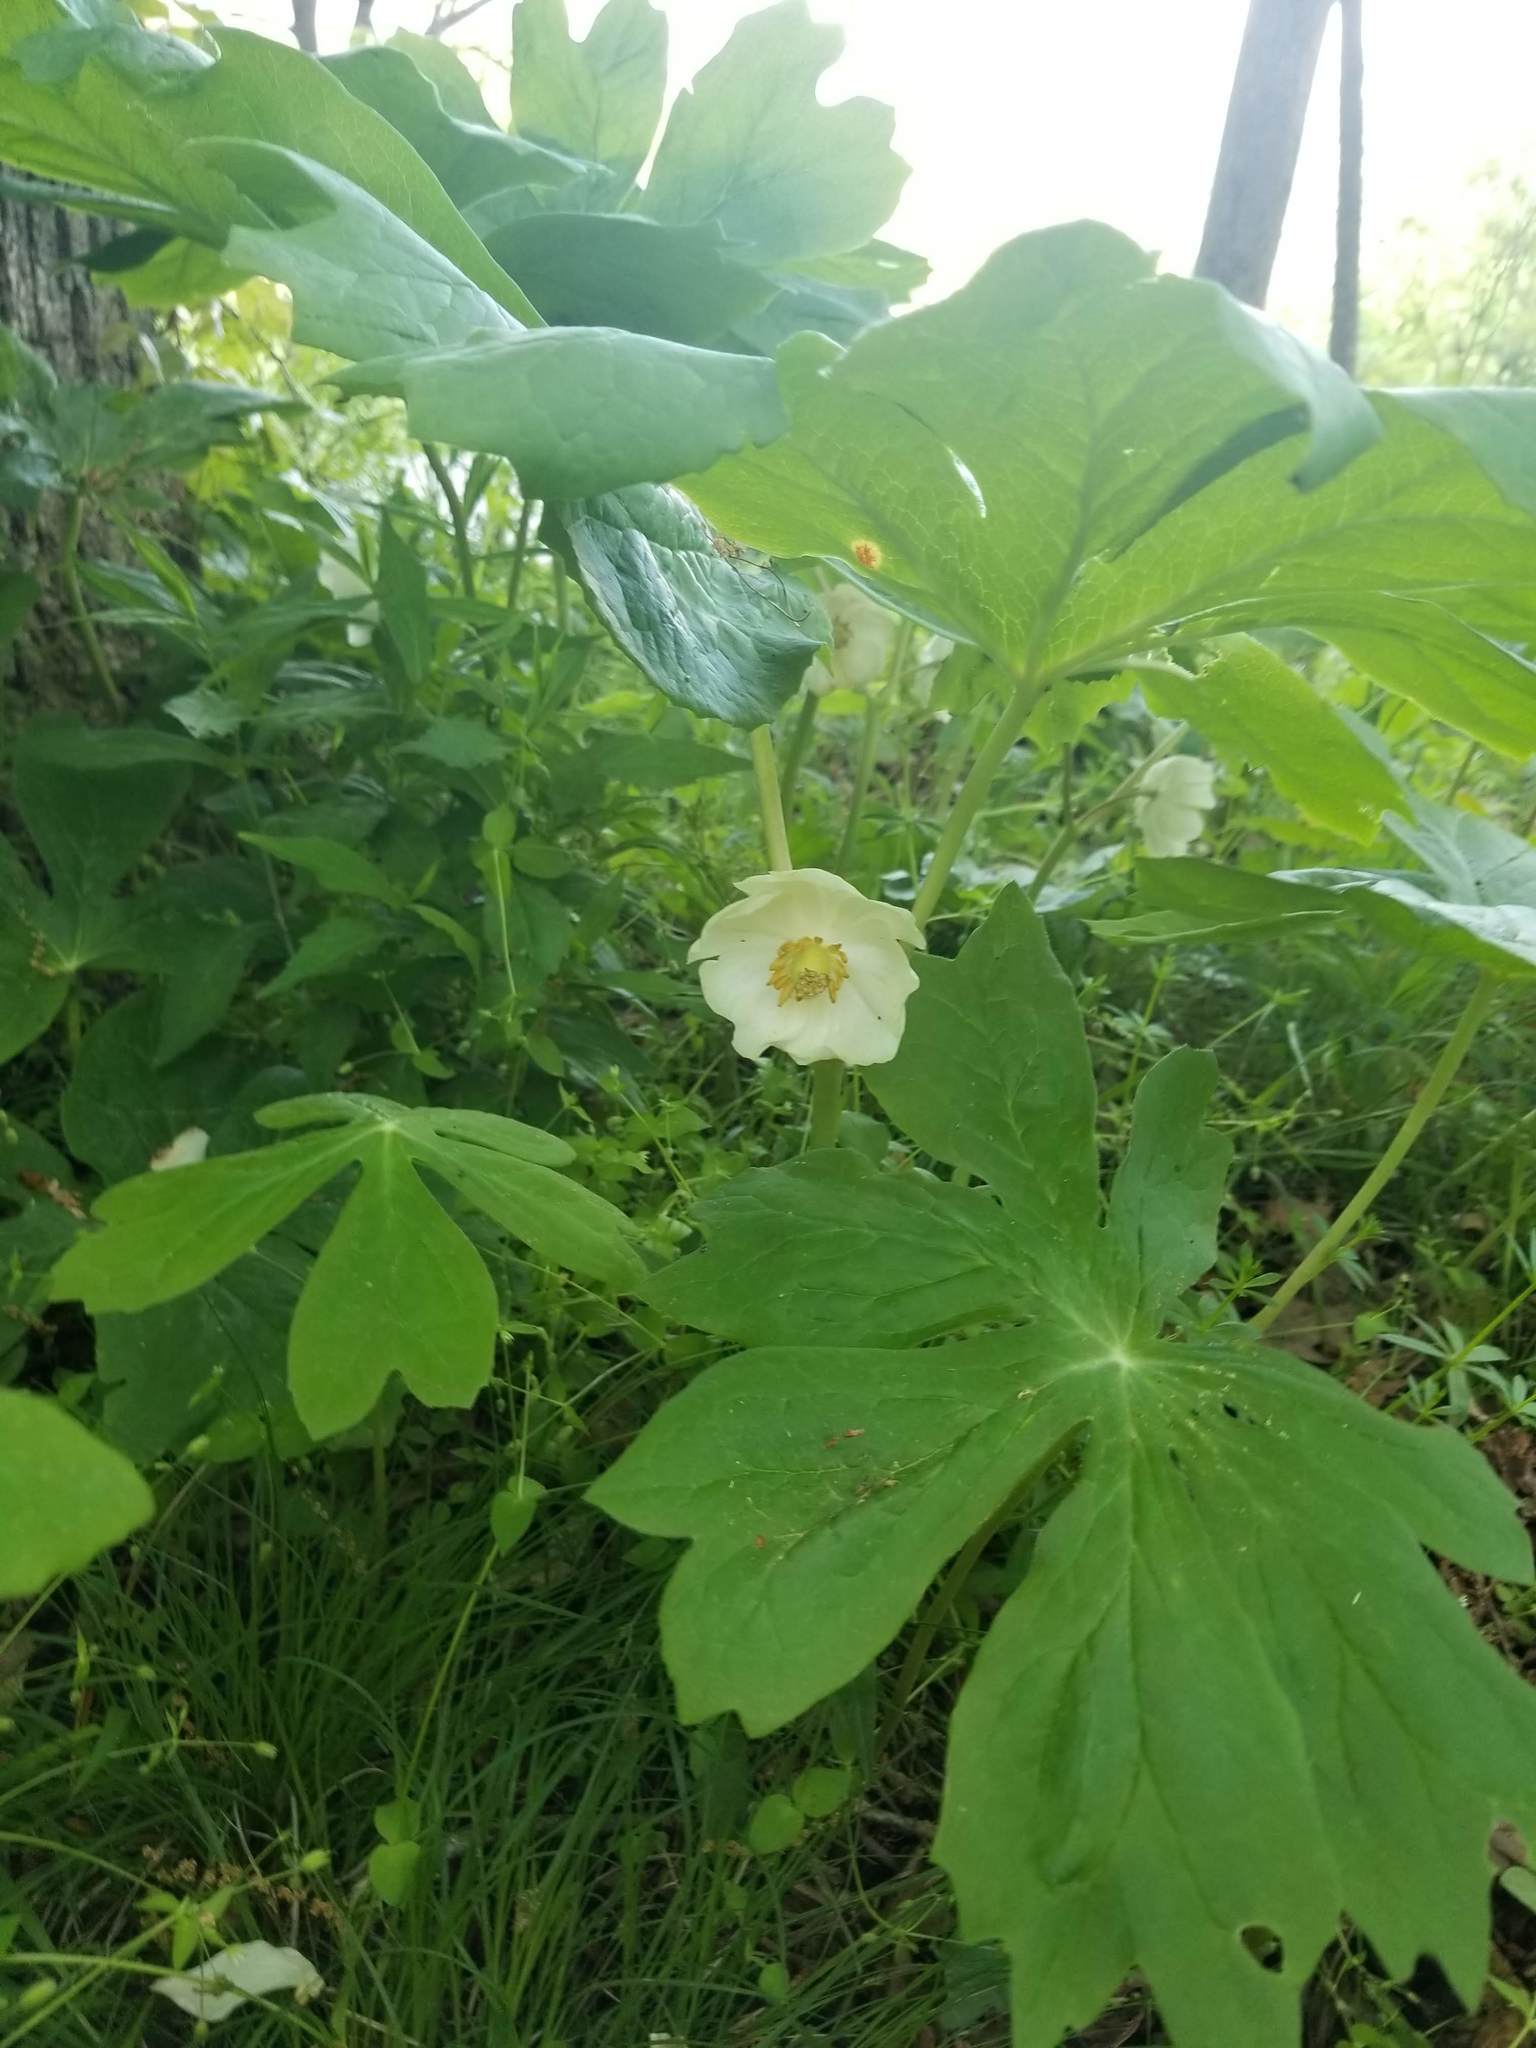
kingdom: Plantae
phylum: Tracheophyta
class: Magnoliopsida
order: Ranunculales
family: Berberidaceae
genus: Podophyllum
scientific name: Podophyllum peltatum
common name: Wild mandrake
